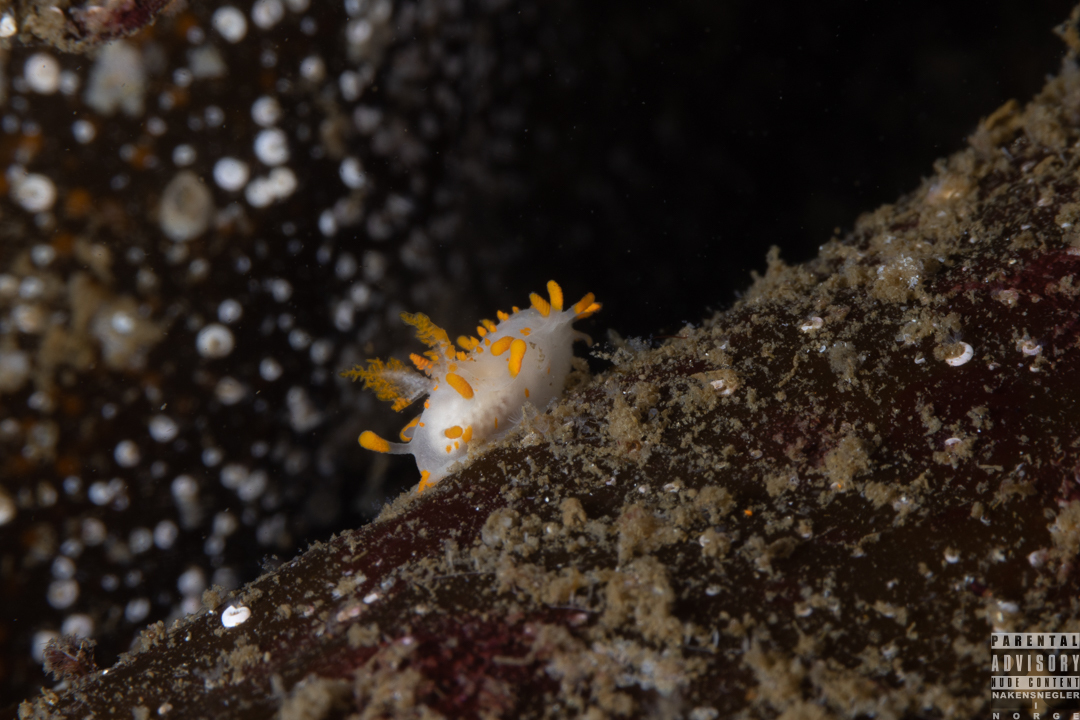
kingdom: Animalia
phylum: Mollusca
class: Gastropoda
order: Nudibranchia
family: Polyceridae
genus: Limacia
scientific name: Limacia clavigera
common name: Orange-clubbed sea slug
